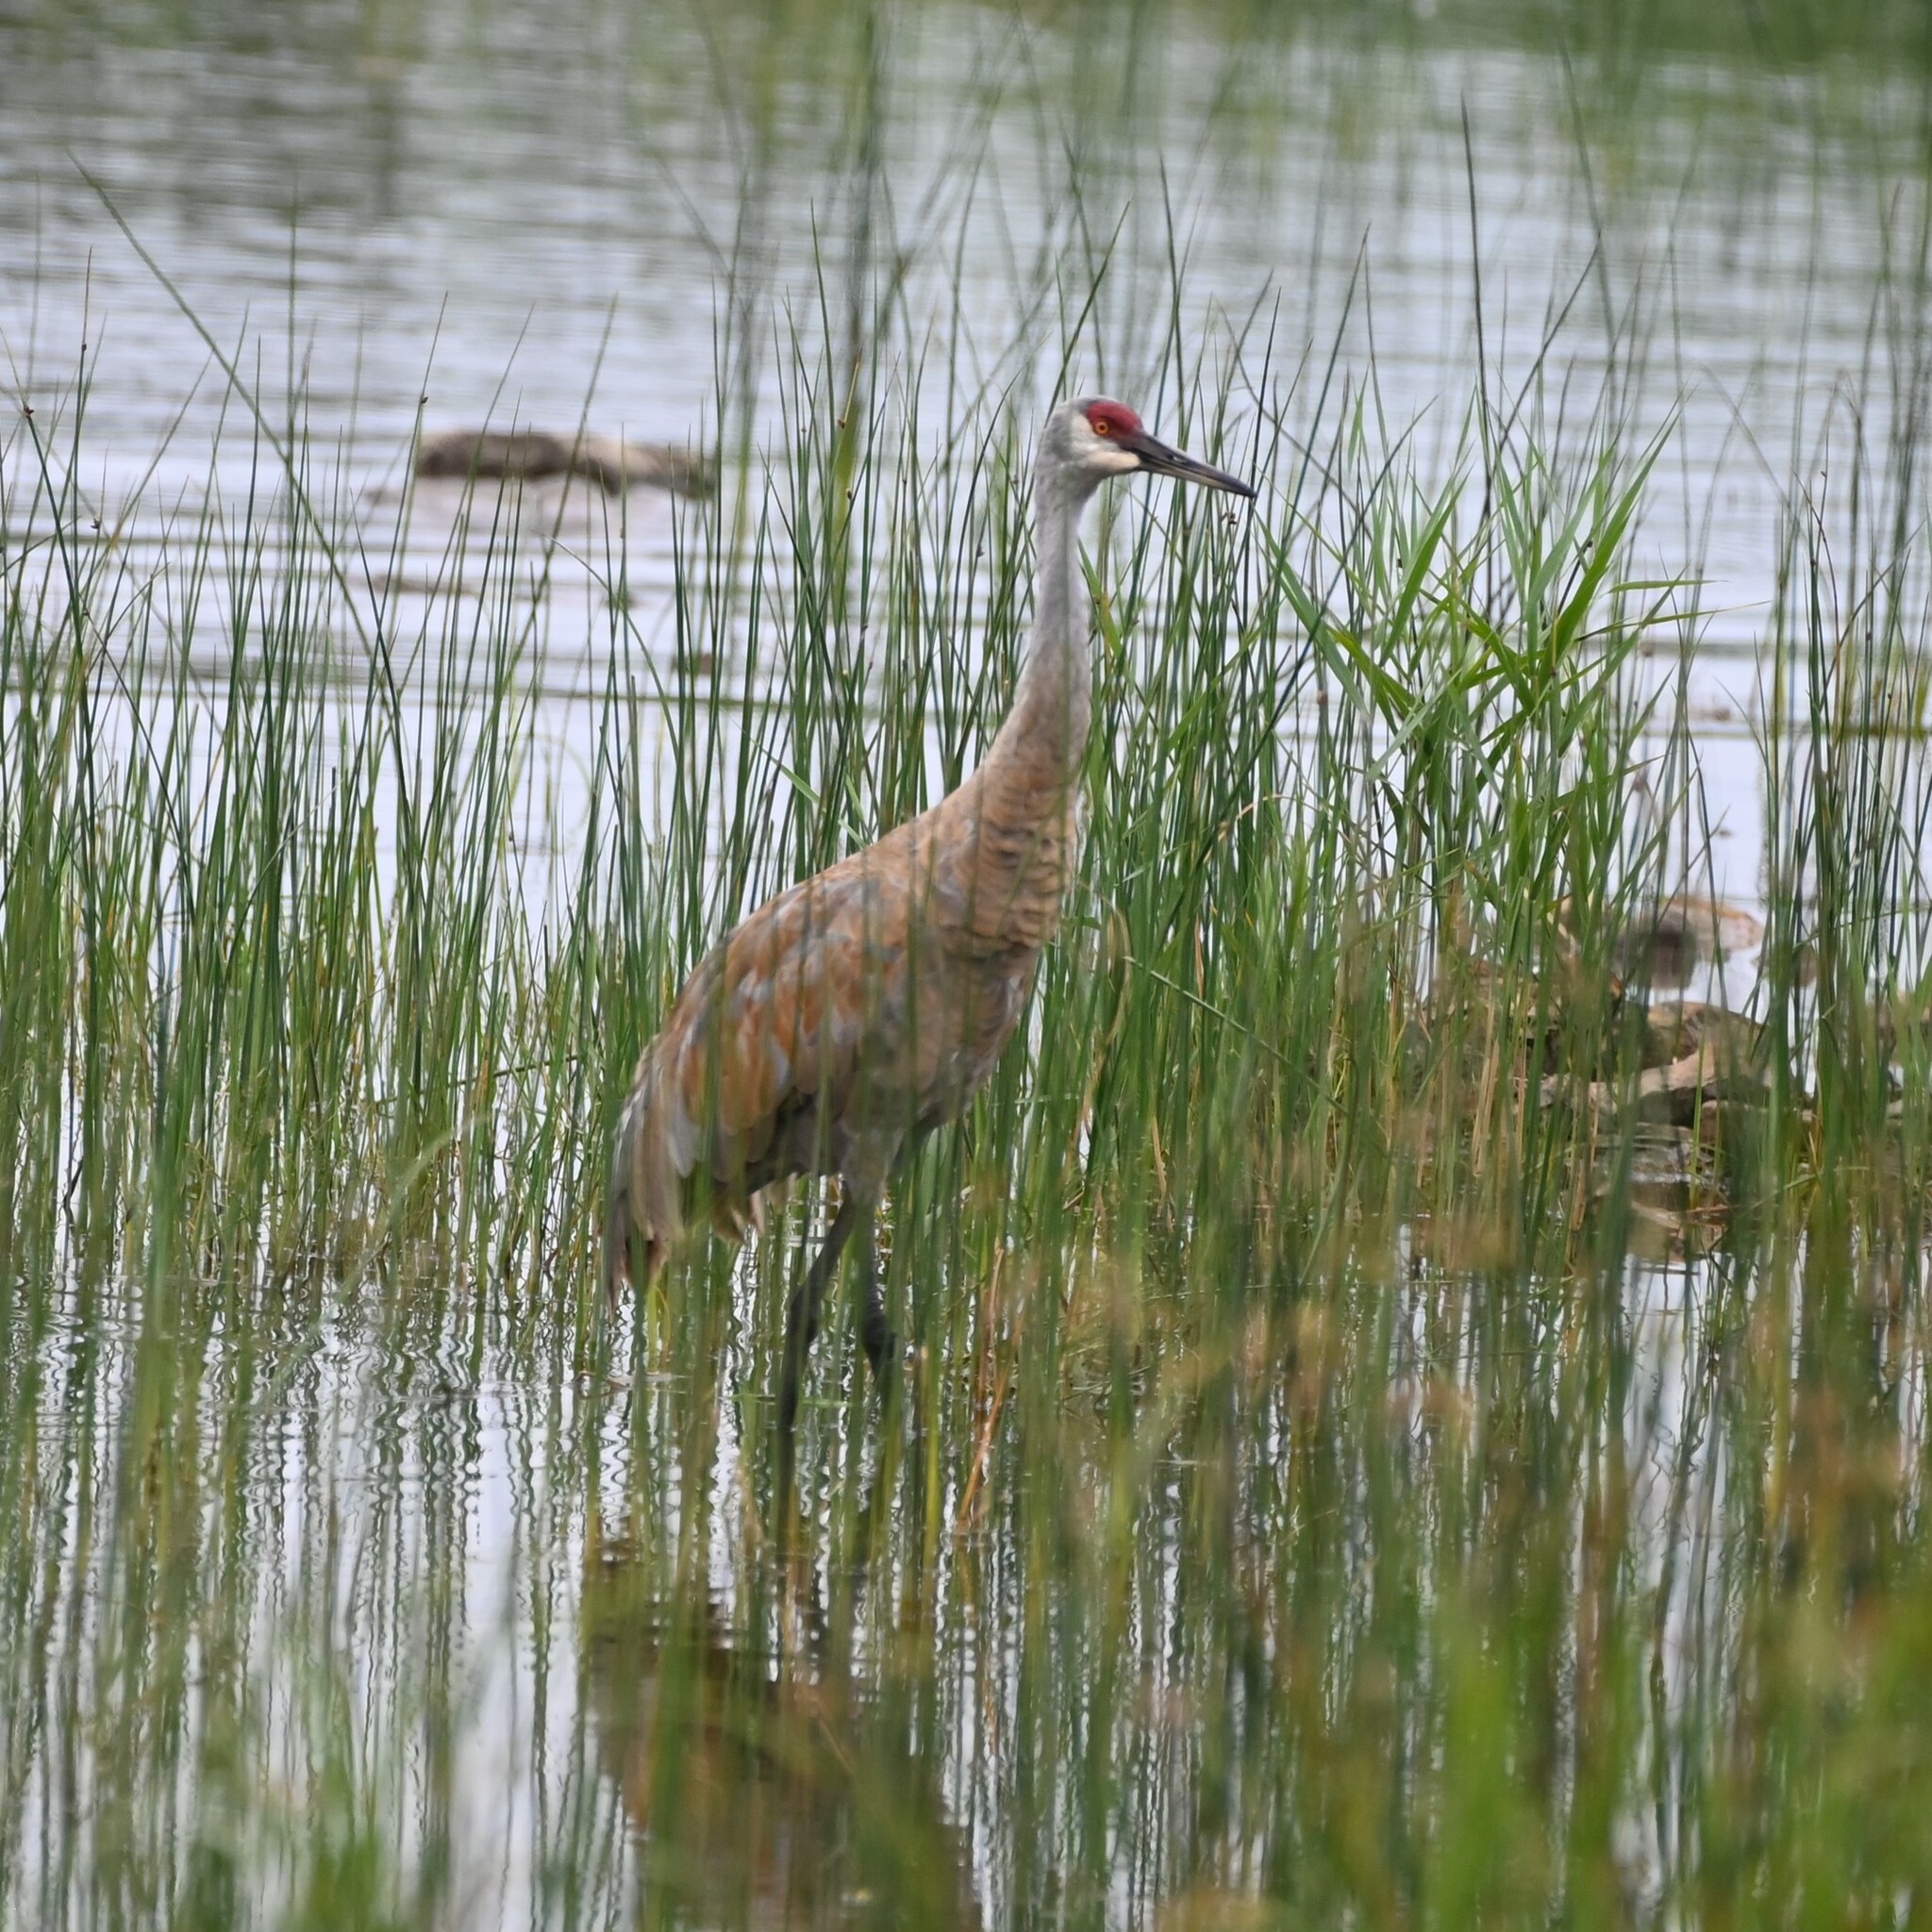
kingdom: Animalia
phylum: Chordata
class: Aves
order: Gruiformes
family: Gruidae
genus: Grus
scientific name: Grus canadensis
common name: Sandhill crane
